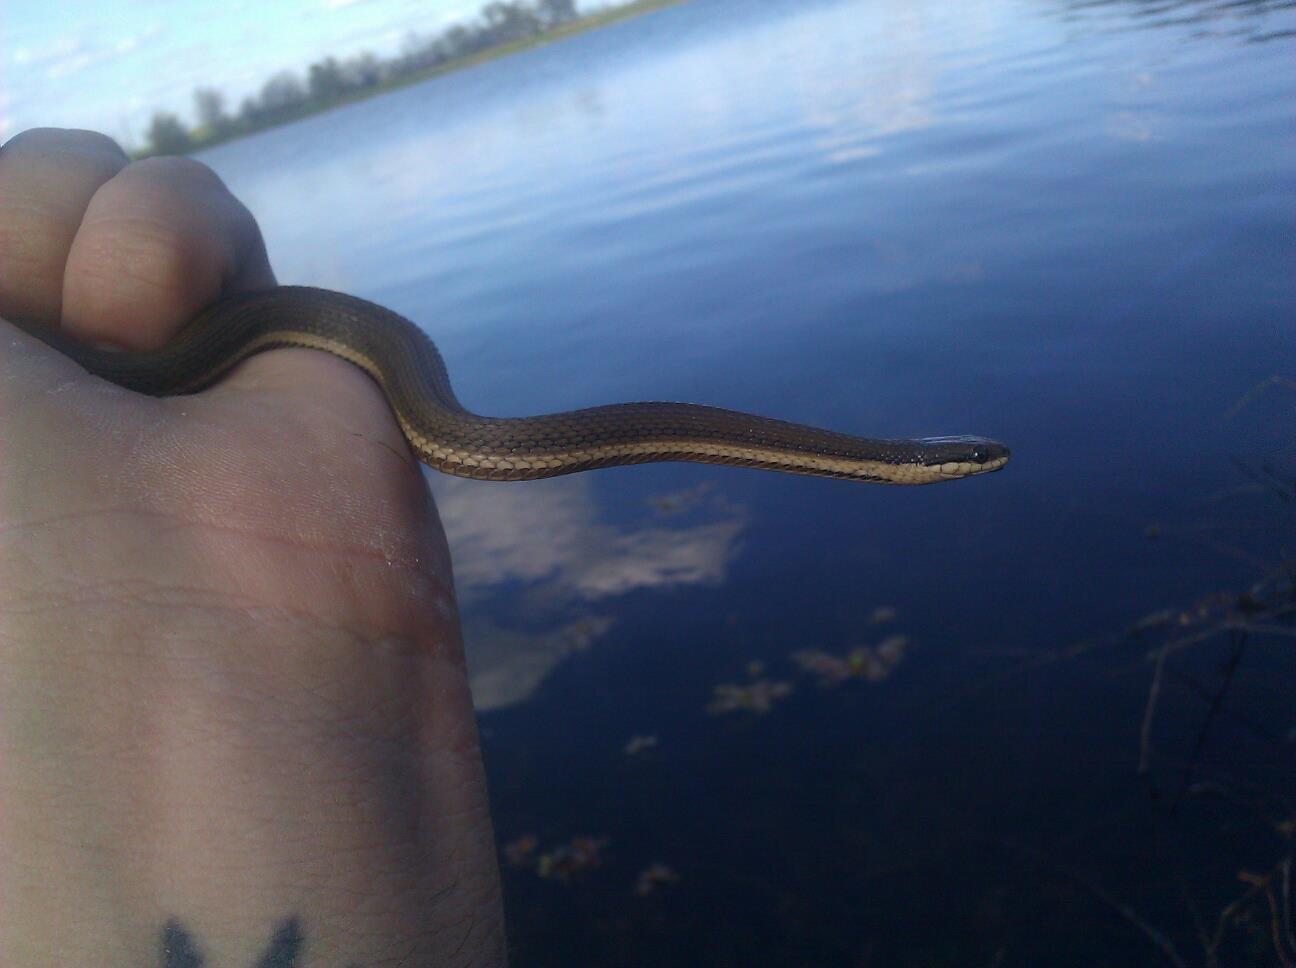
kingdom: Animalia
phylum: Chordata
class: Squamata
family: Colubridae
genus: Regina
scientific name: Regina septemvittata
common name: Queen snake
